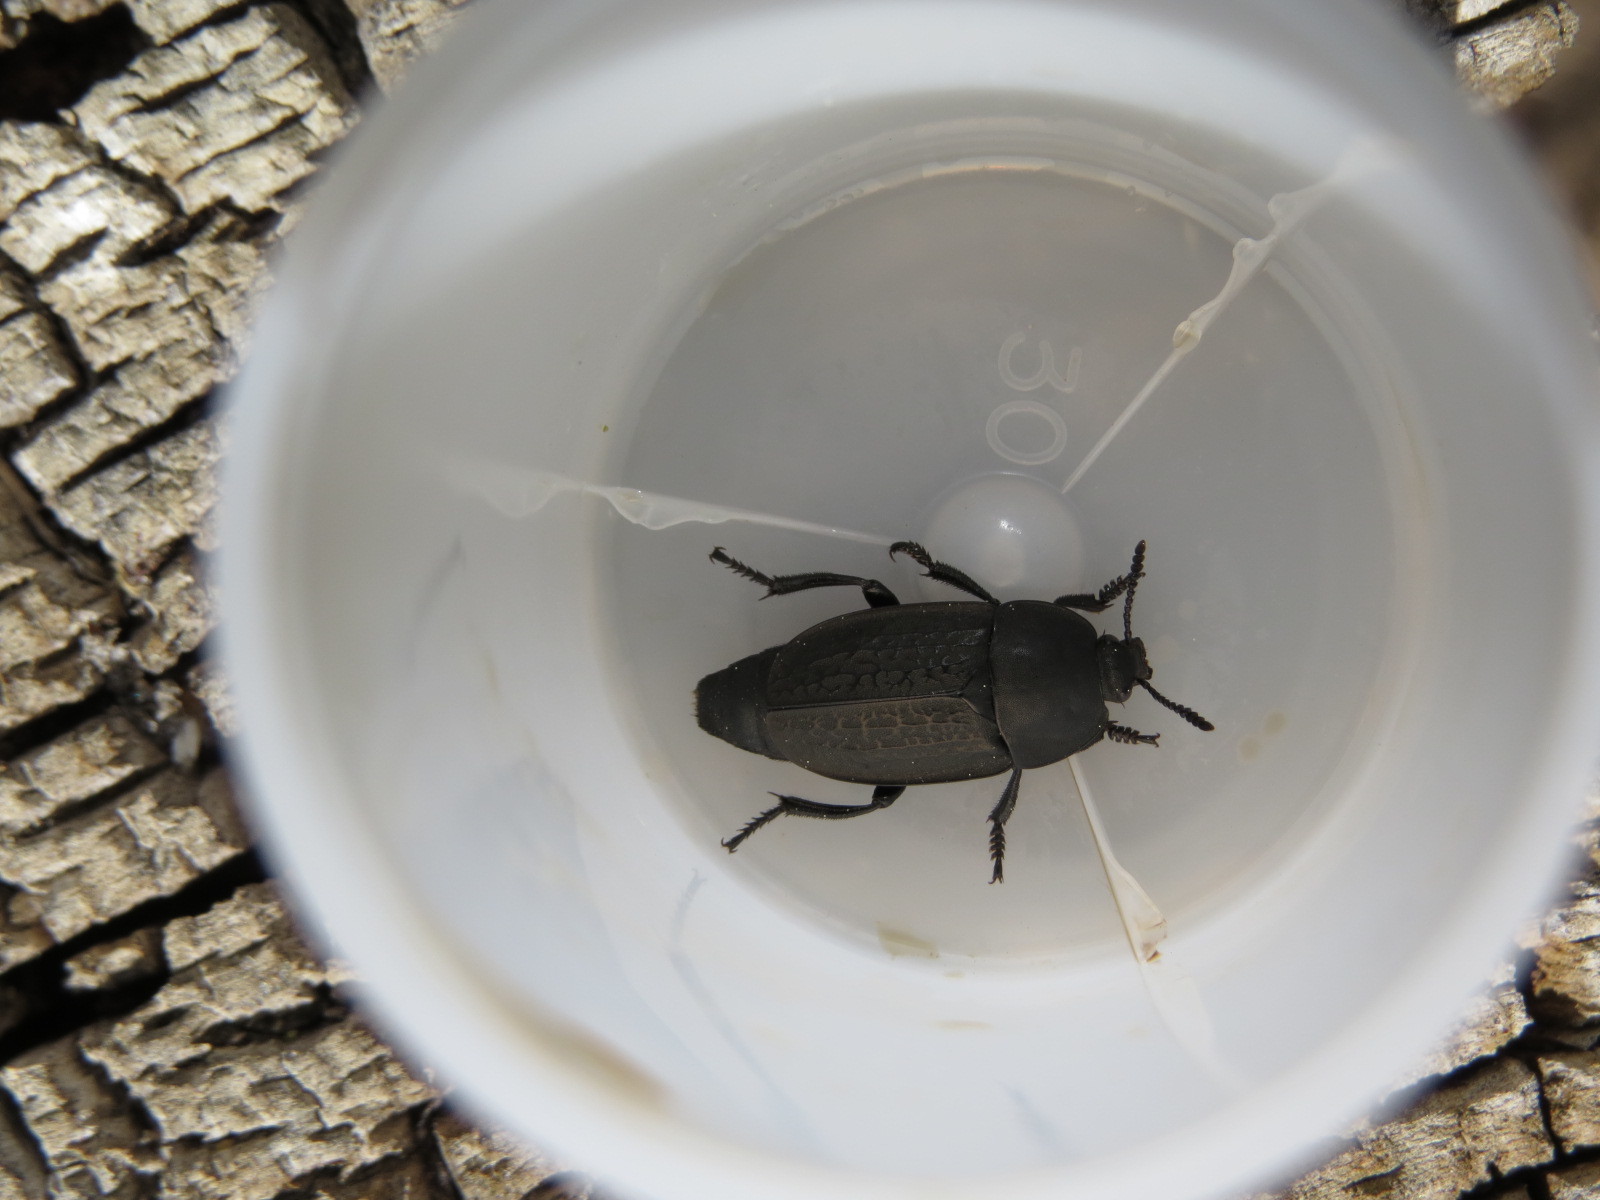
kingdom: Animalia
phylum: Arthropoda
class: Insecta
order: Coleoptera
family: Staphylinidae
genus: Heterosilpha
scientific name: Heterosilpha ramosa
